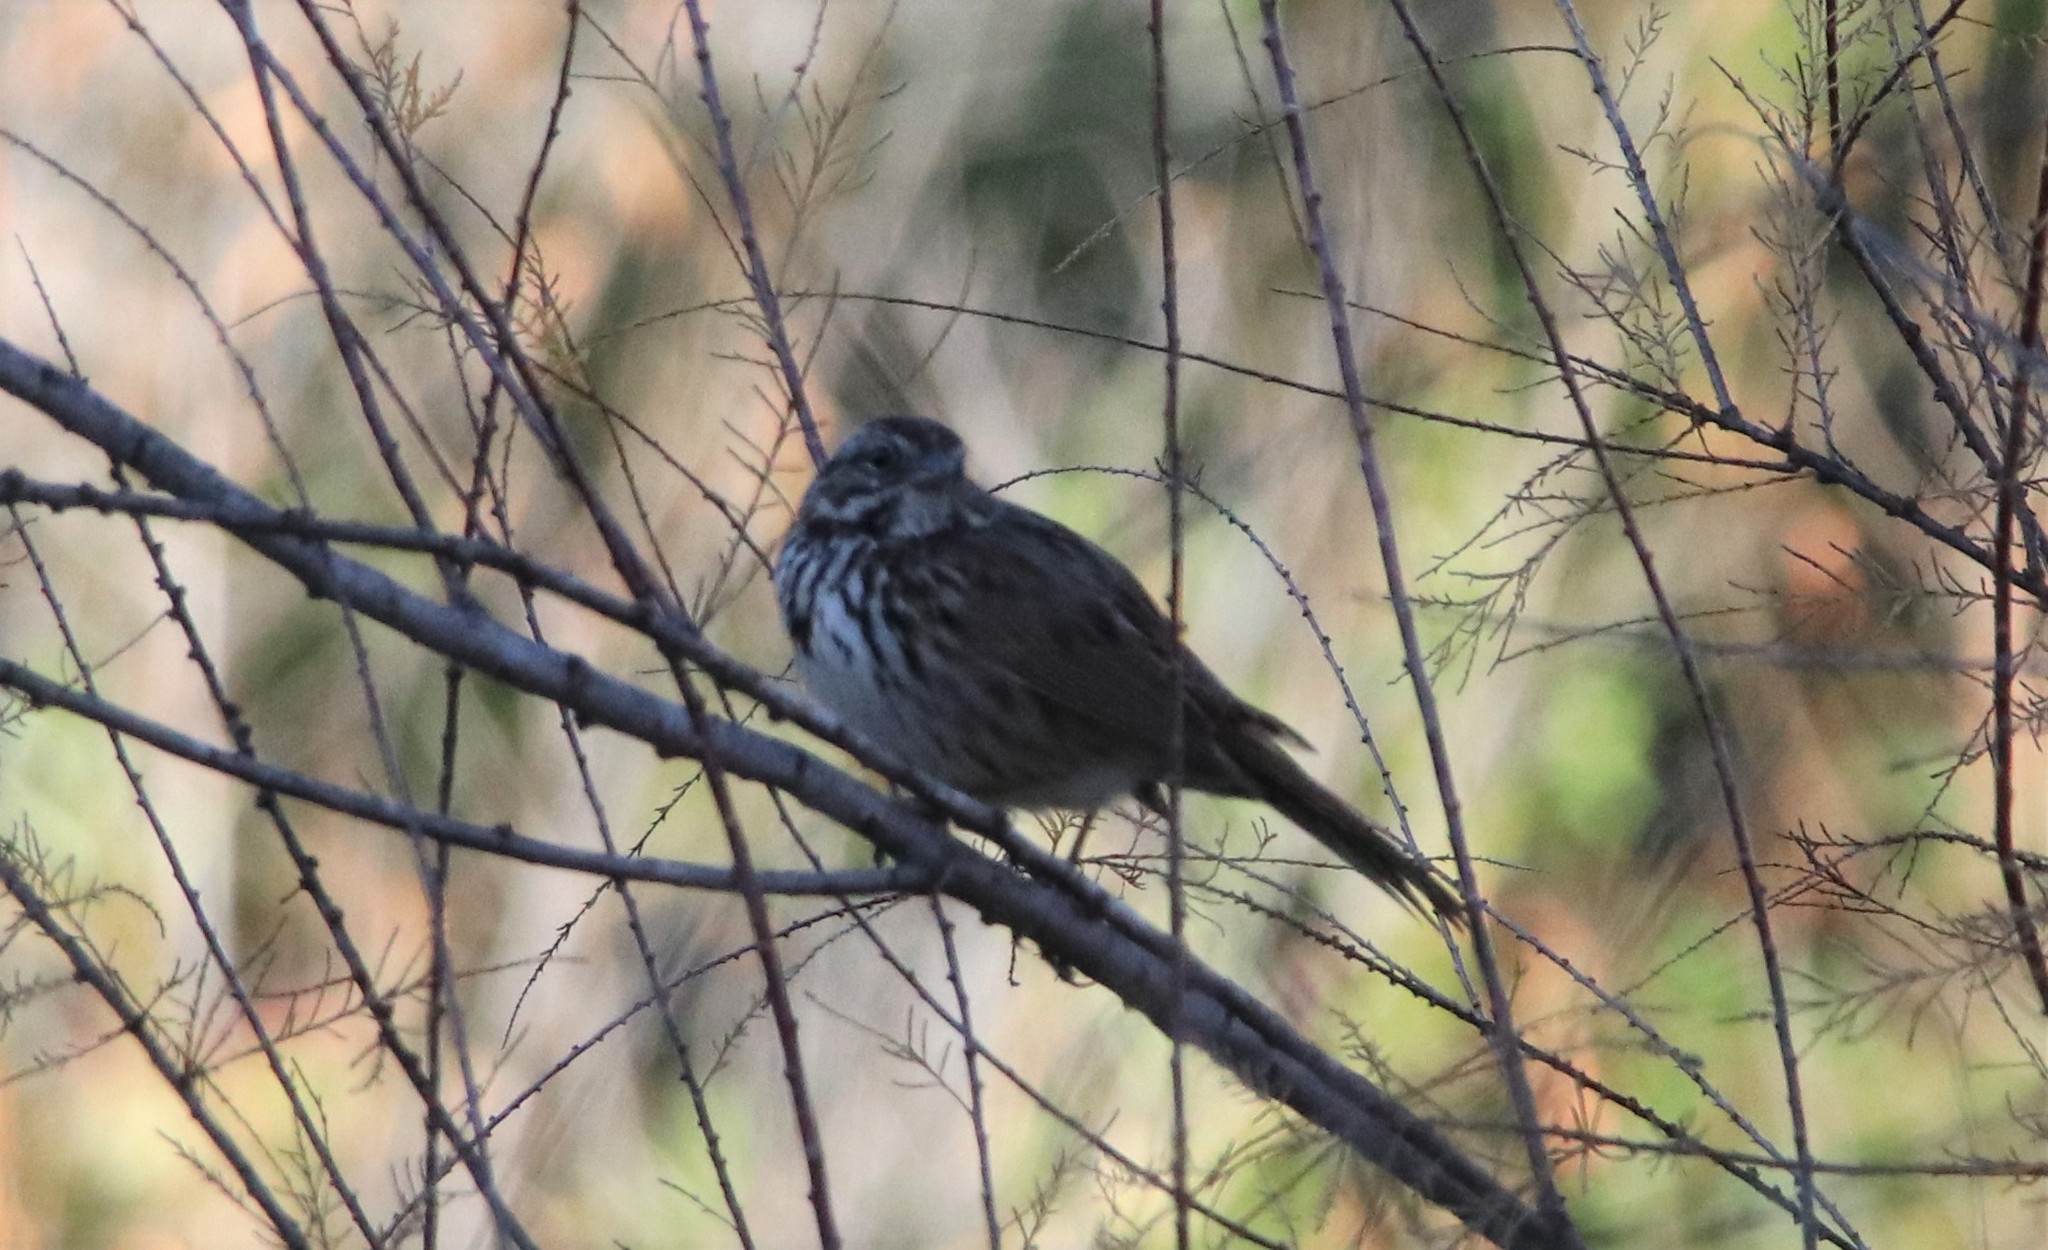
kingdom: Animalia
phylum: Chordata
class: Aves
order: Passeriformes
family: Passerellidae
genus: Melospiza
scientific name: Melospiza melodia
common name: Song sparrow
